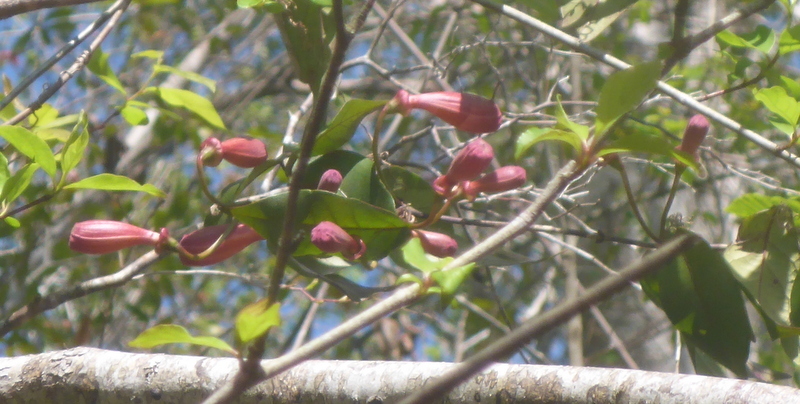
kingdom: Plantae
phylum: Tracheophyta
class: Magnoliopsida
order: Lamiales
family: Bignoniaceae
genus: Bignonia
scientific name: Bignonia capreolata
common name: Crossvine
